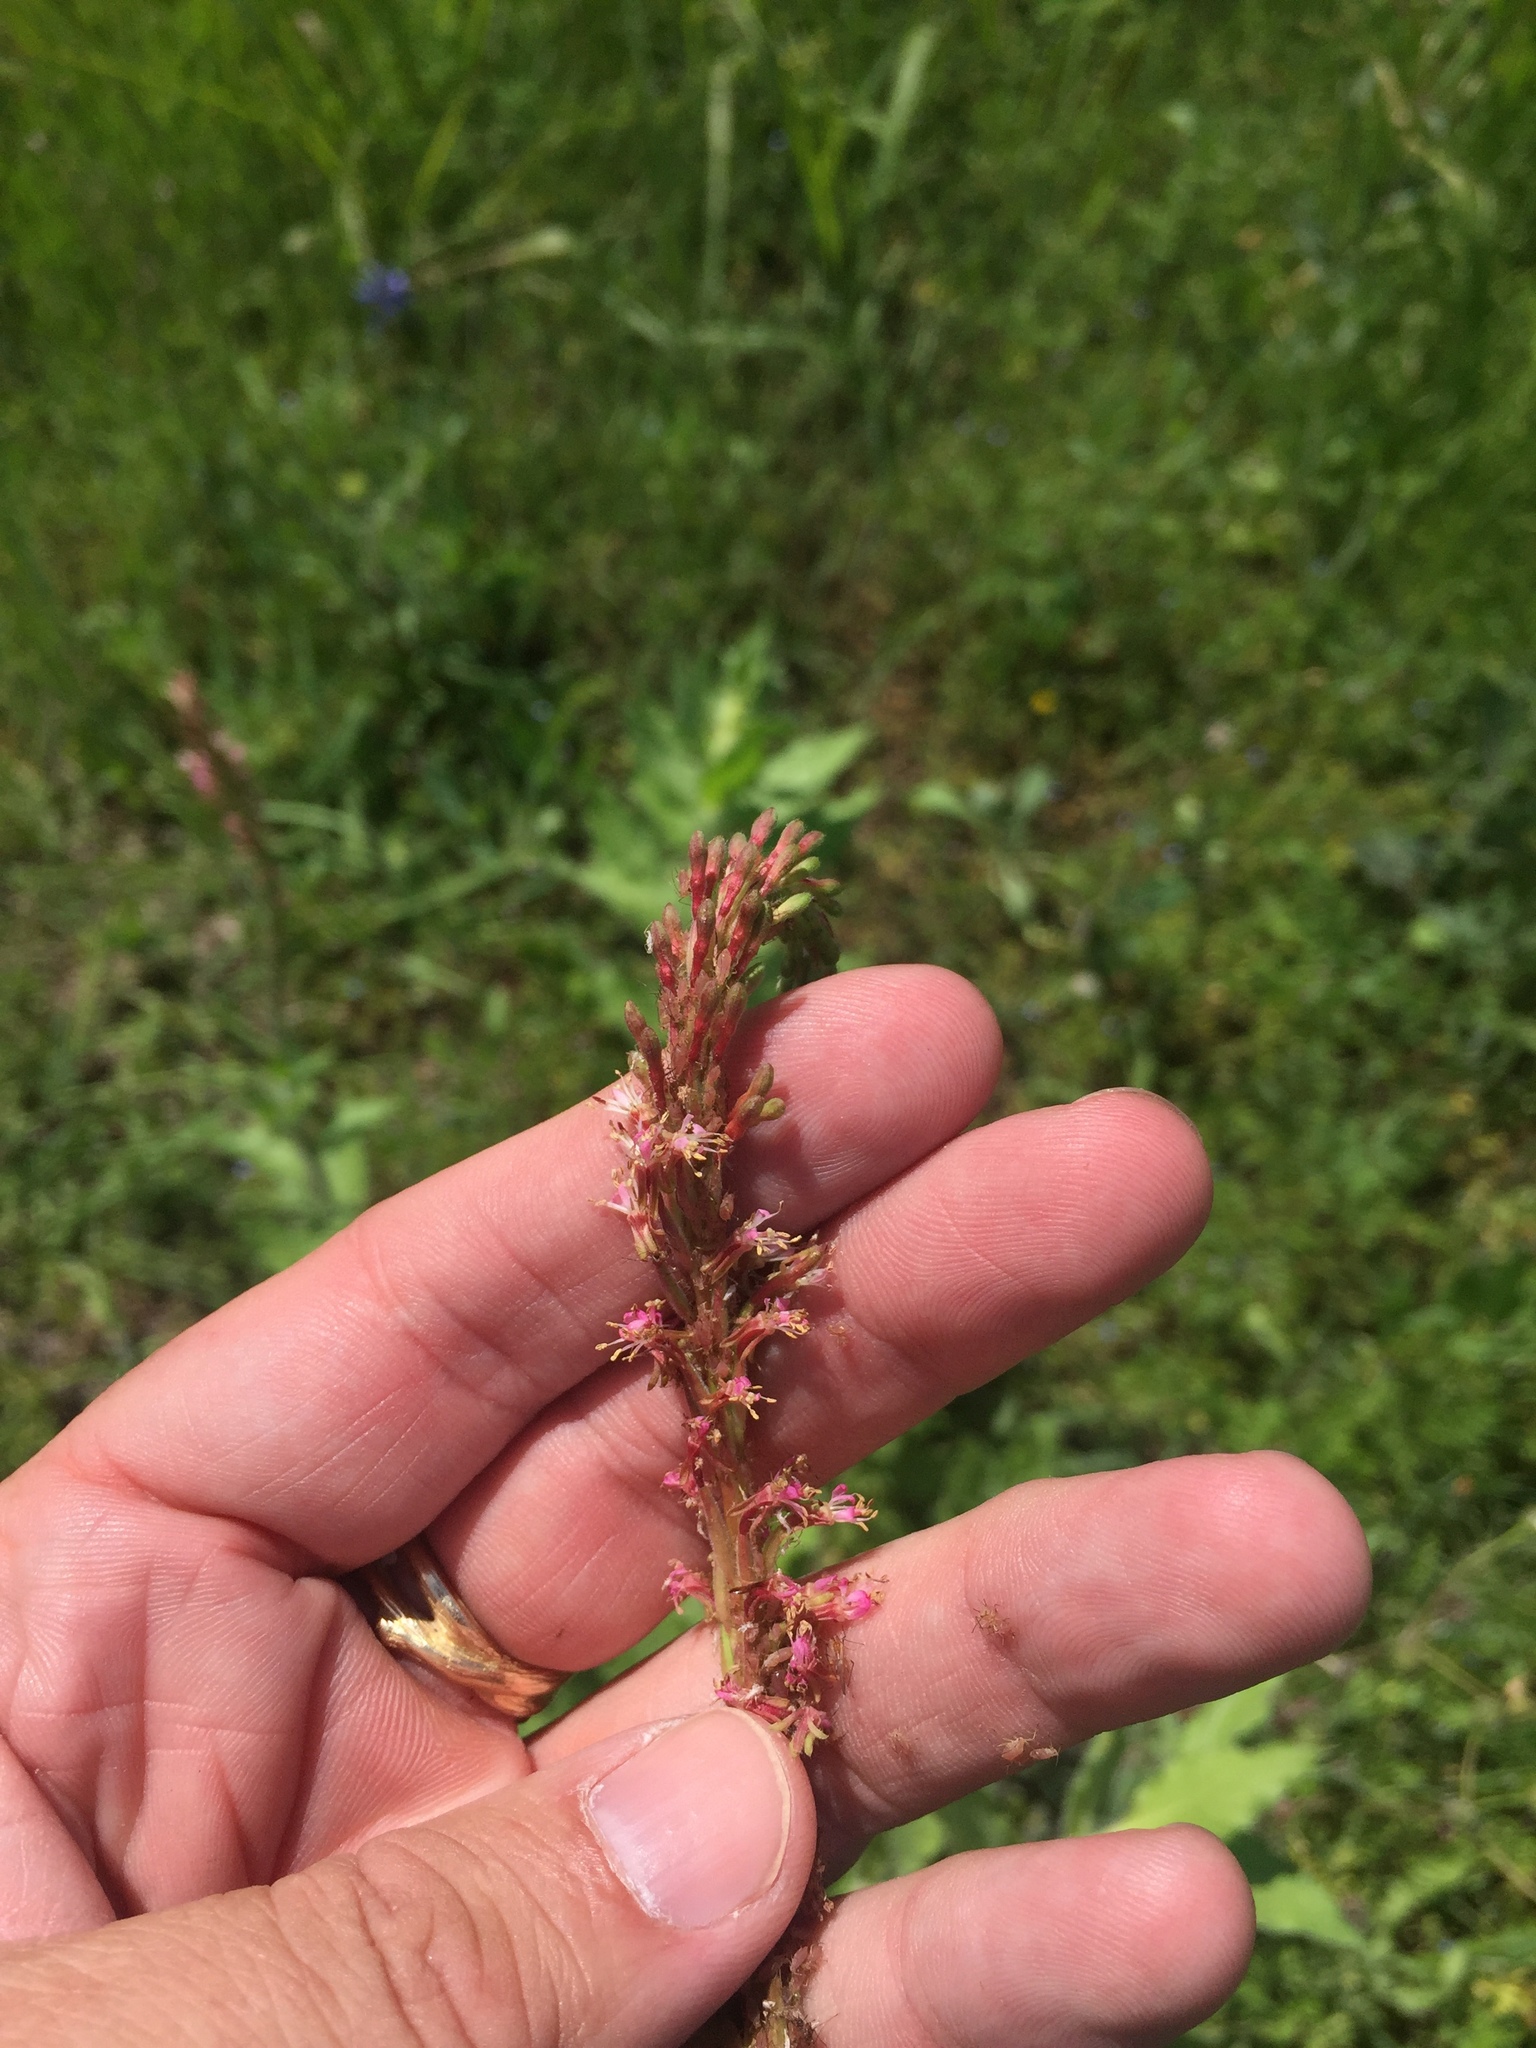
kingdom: Plantae
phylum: Tracheophyta
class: Magnoliopsida
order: Myrtales
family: Onagraceae
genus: Oenothera
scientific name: Oenothera curtiflora
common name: Velvetweed
